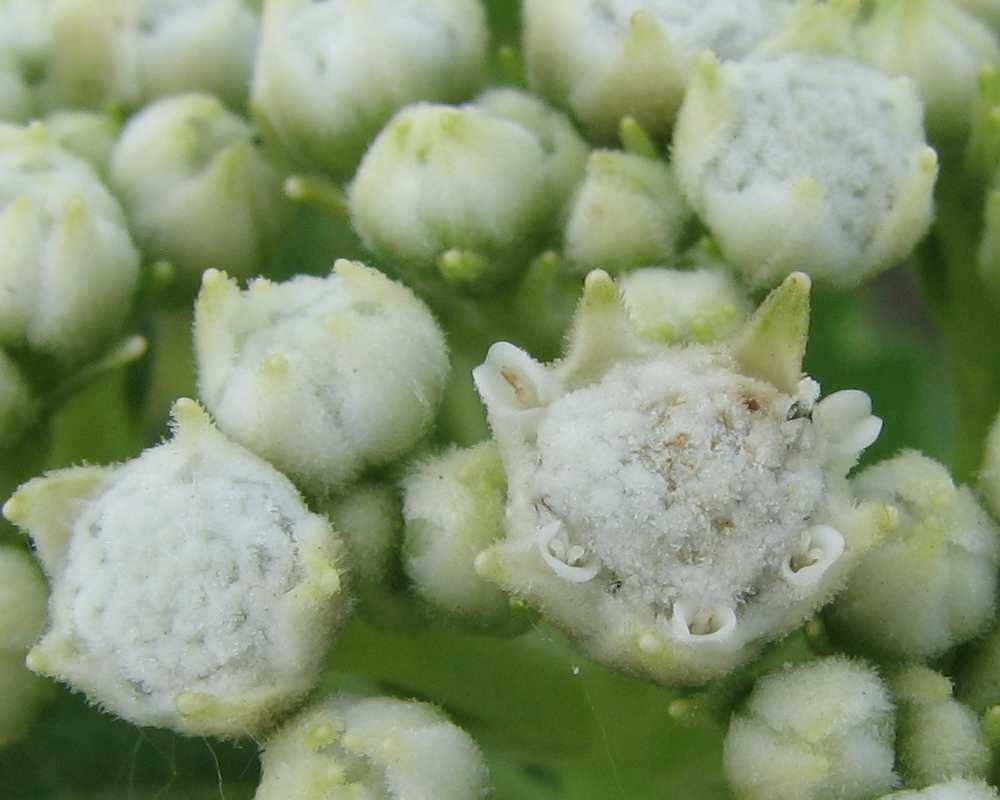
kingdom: Plantae
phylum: Tracheophyta
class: Magnoliopsida
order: Asterales
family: Asteraceae
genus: Parthenium
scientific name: Parthenium integrifolium
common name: American feverfew
